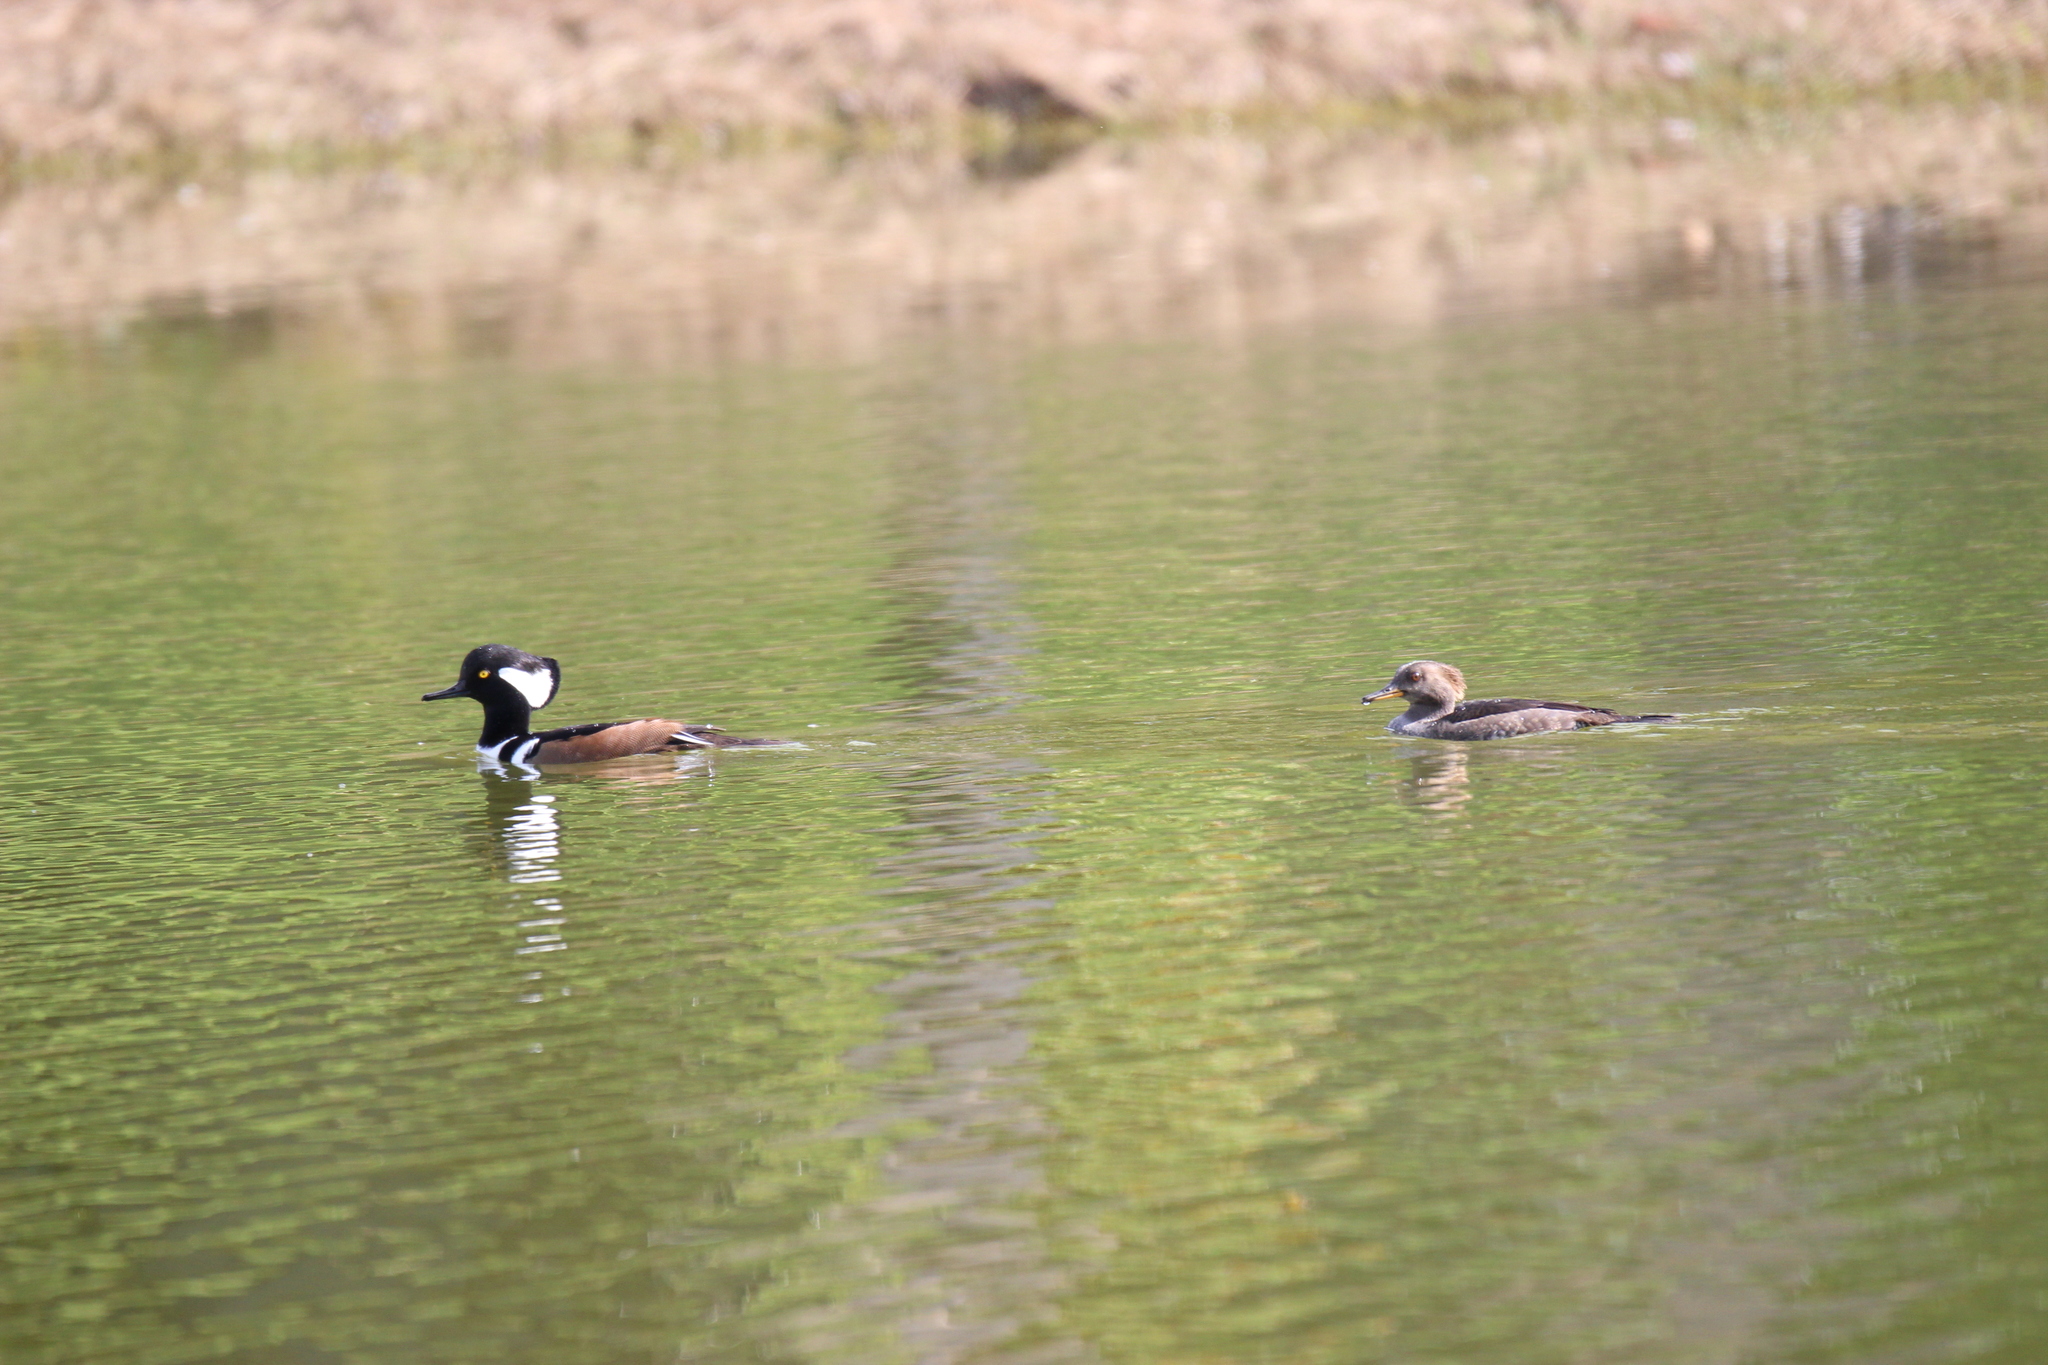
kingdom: Animalia
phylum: Chordata
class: Aves
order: Anseriformes
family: Anatidae
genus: Lophodytes
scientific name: Lophodytes cucullatus
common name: Hooded merganser
